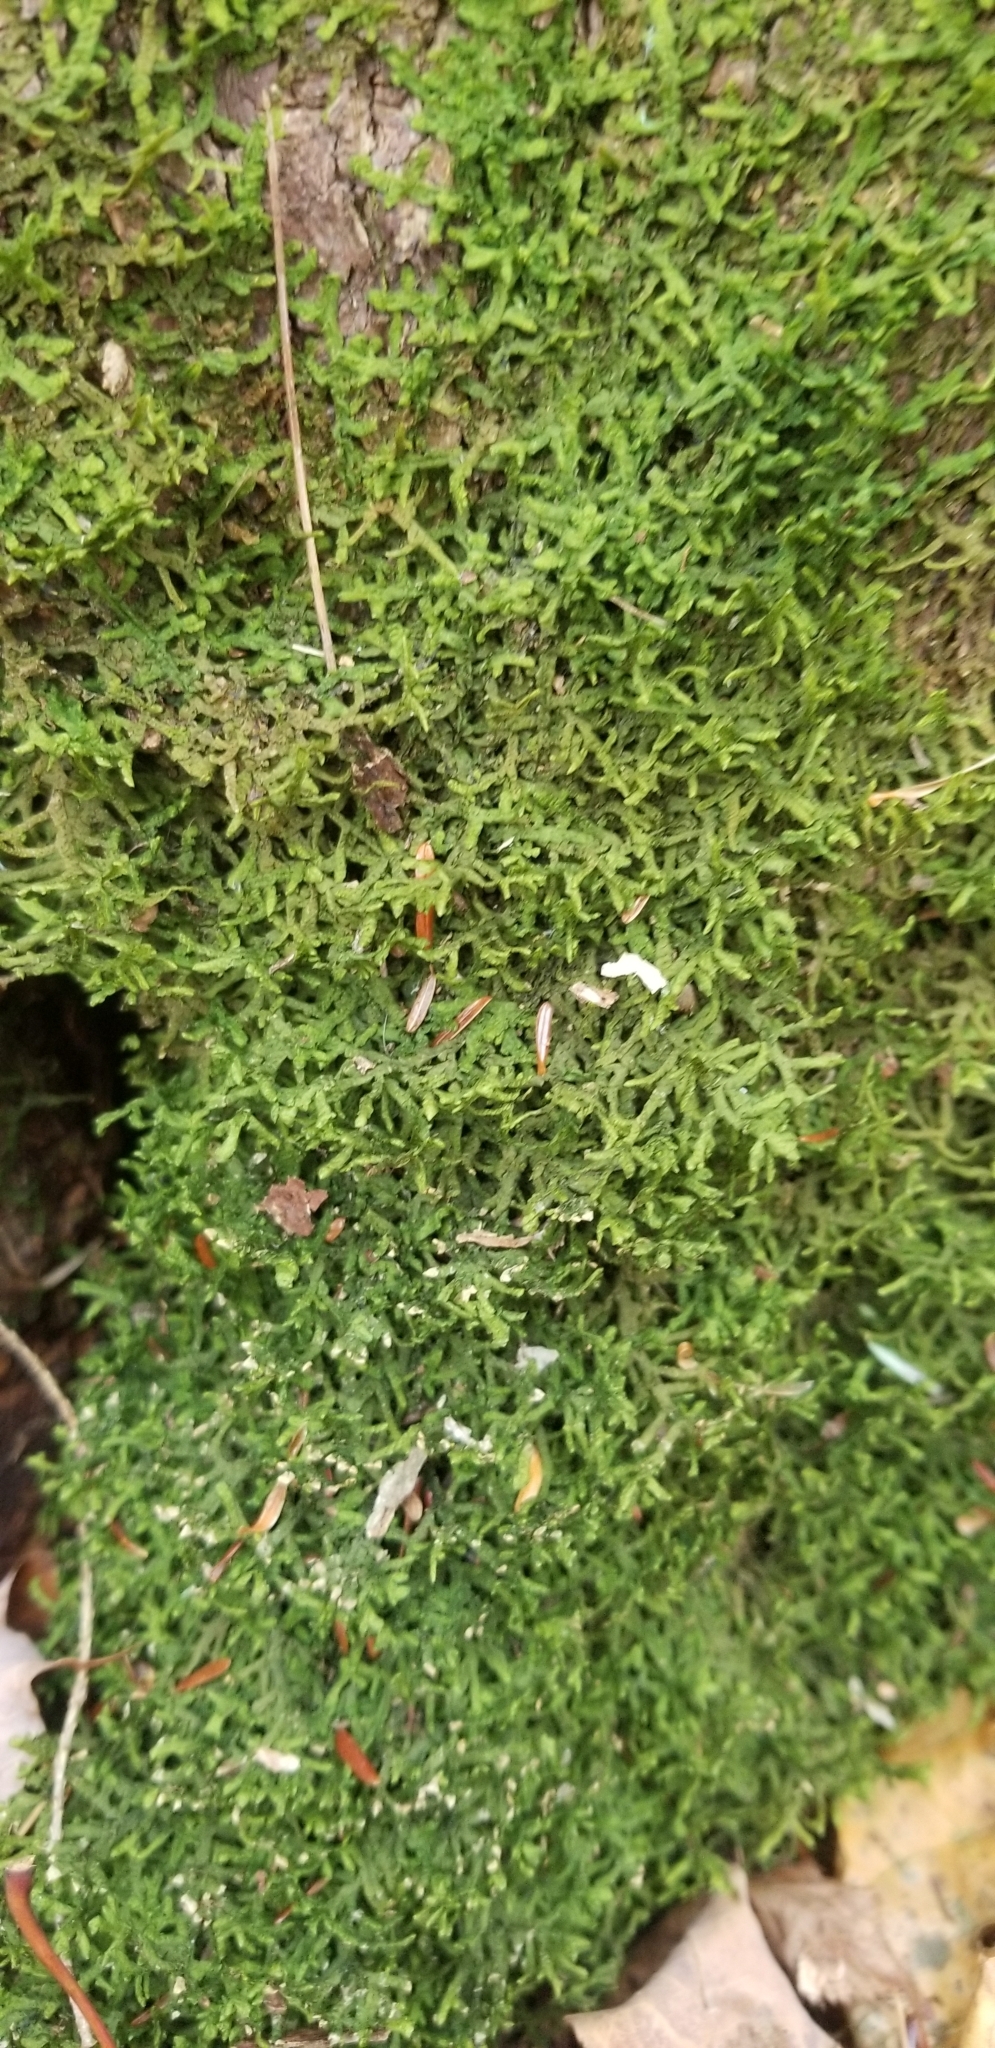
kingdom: Plantae
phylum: Marchantiophyta
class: Jungermanniopsida
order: Porellales
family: Porellaceae
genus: Porella
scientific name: Porella platyphylla
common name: Wall scalewort
